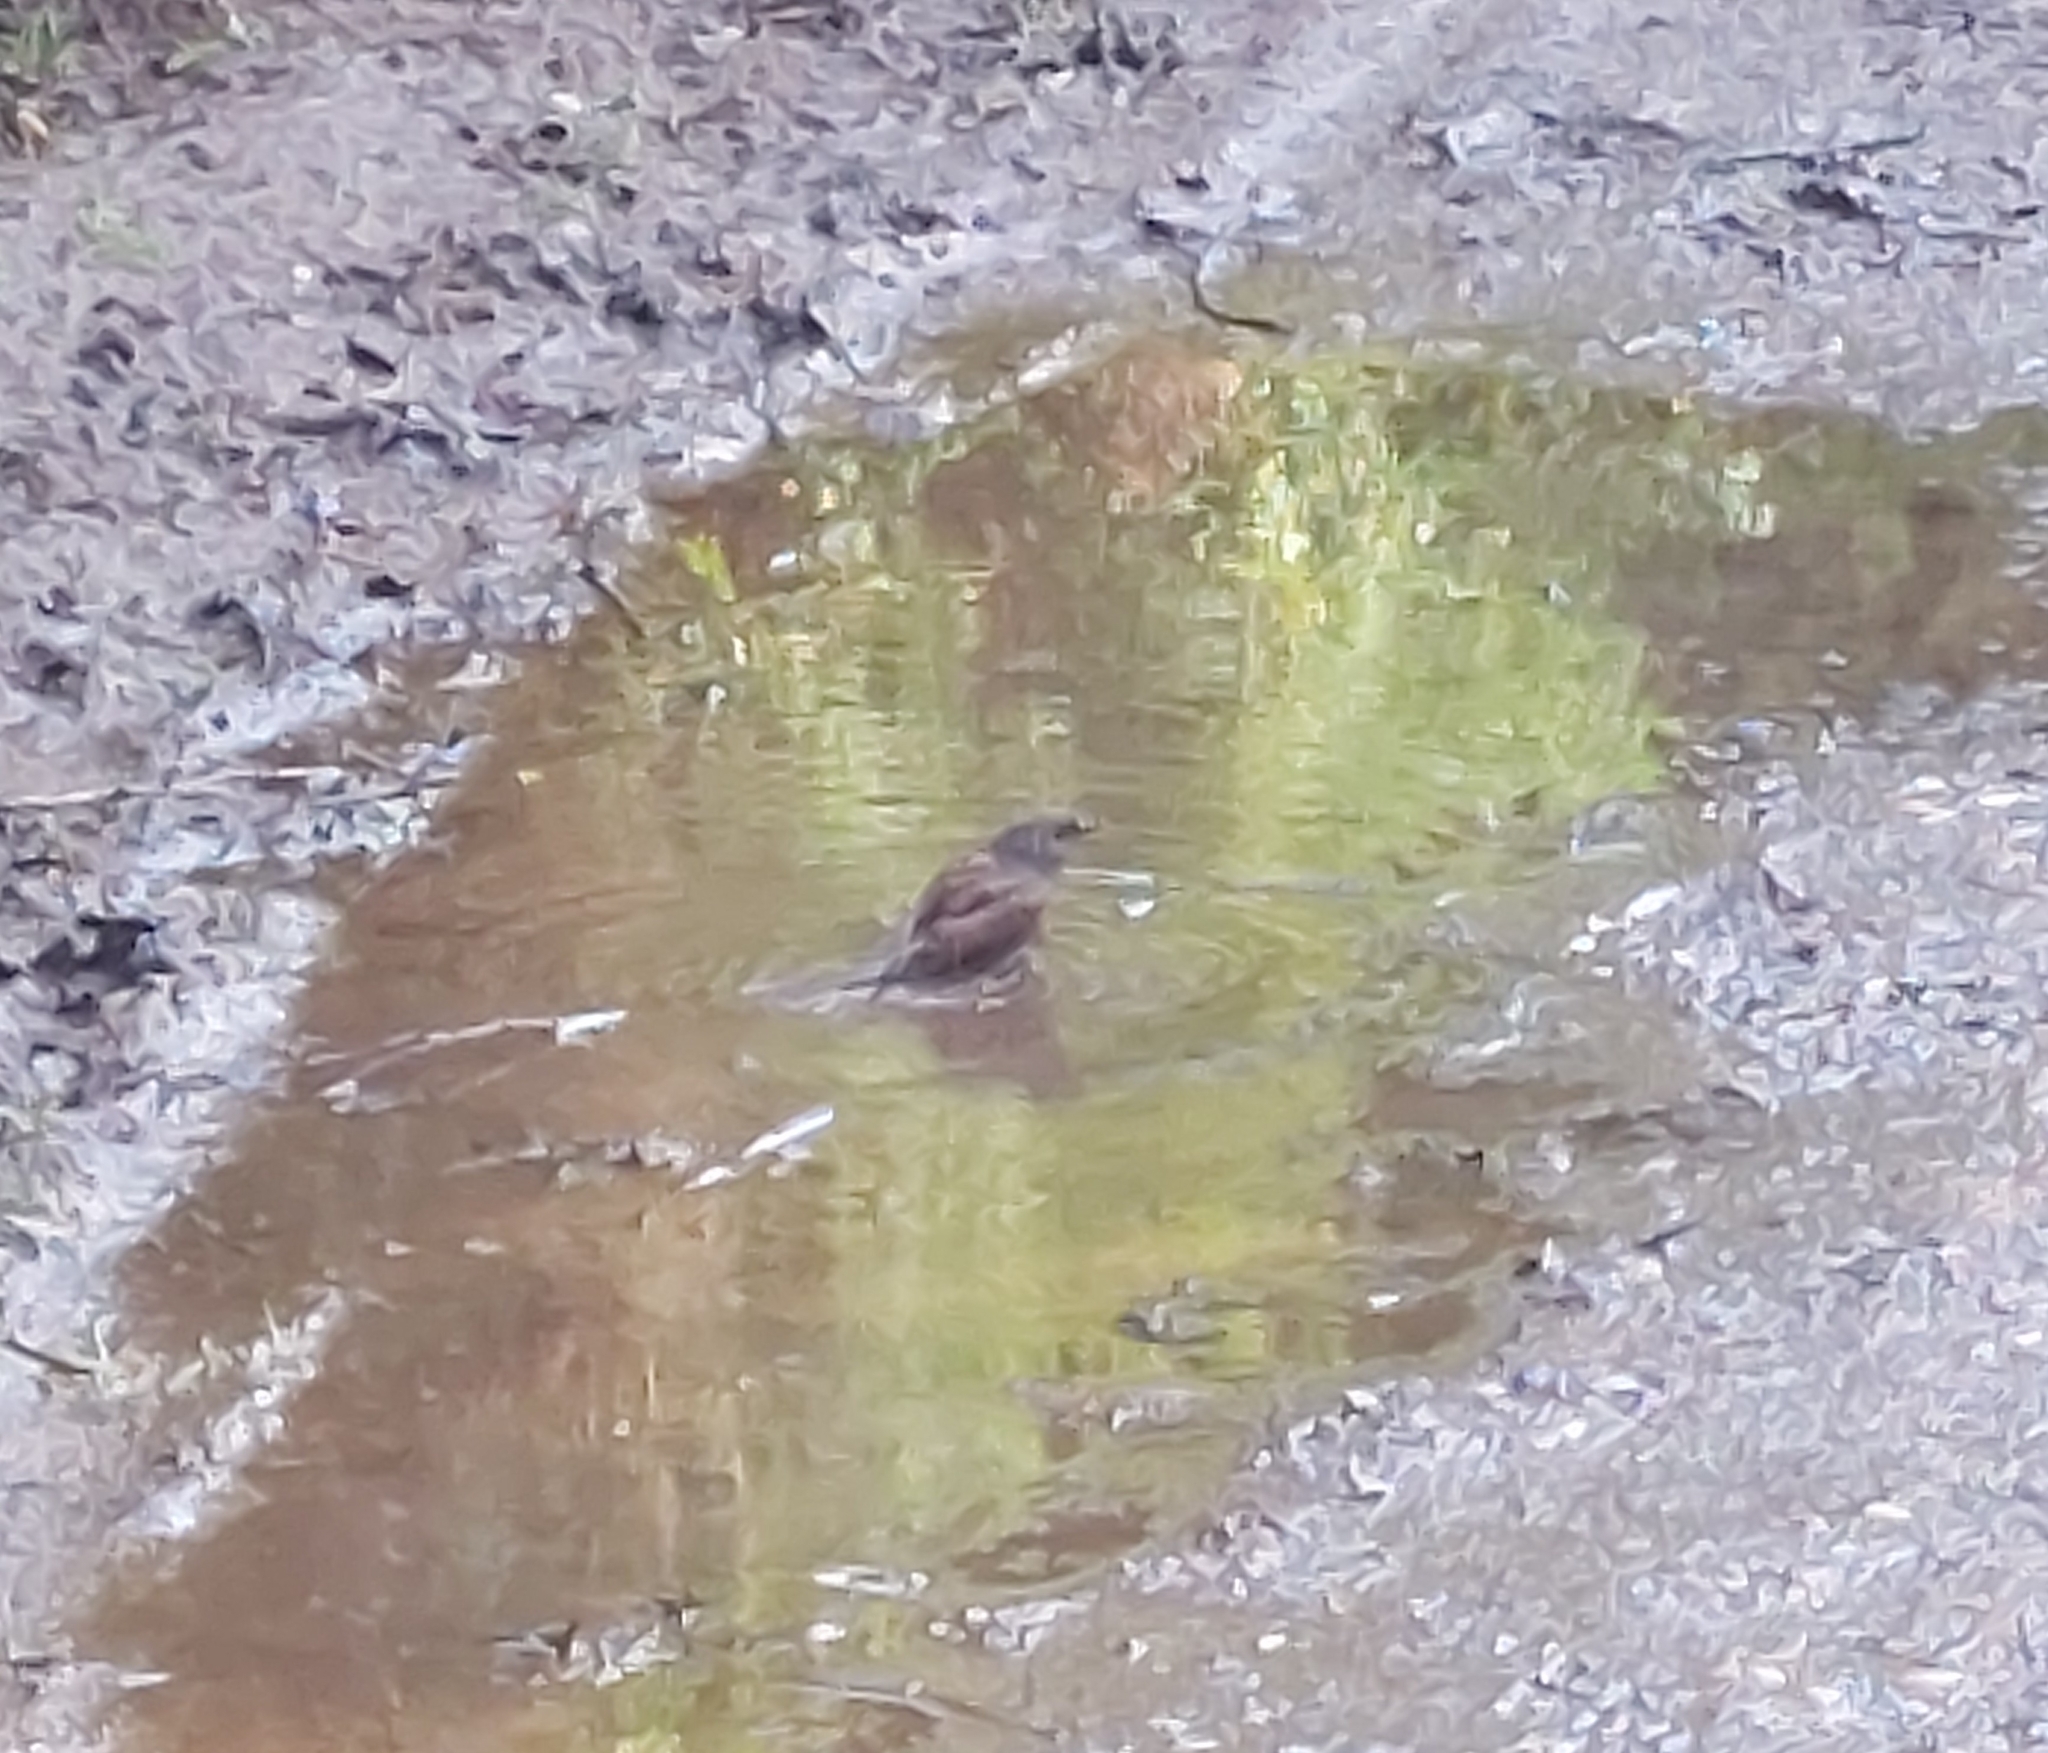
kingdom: Animalia
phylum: Chordata
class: Aves
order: Passeriformes
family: Prunellidae
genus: Prunella
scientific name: Prunella modularis
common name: Dunnock
